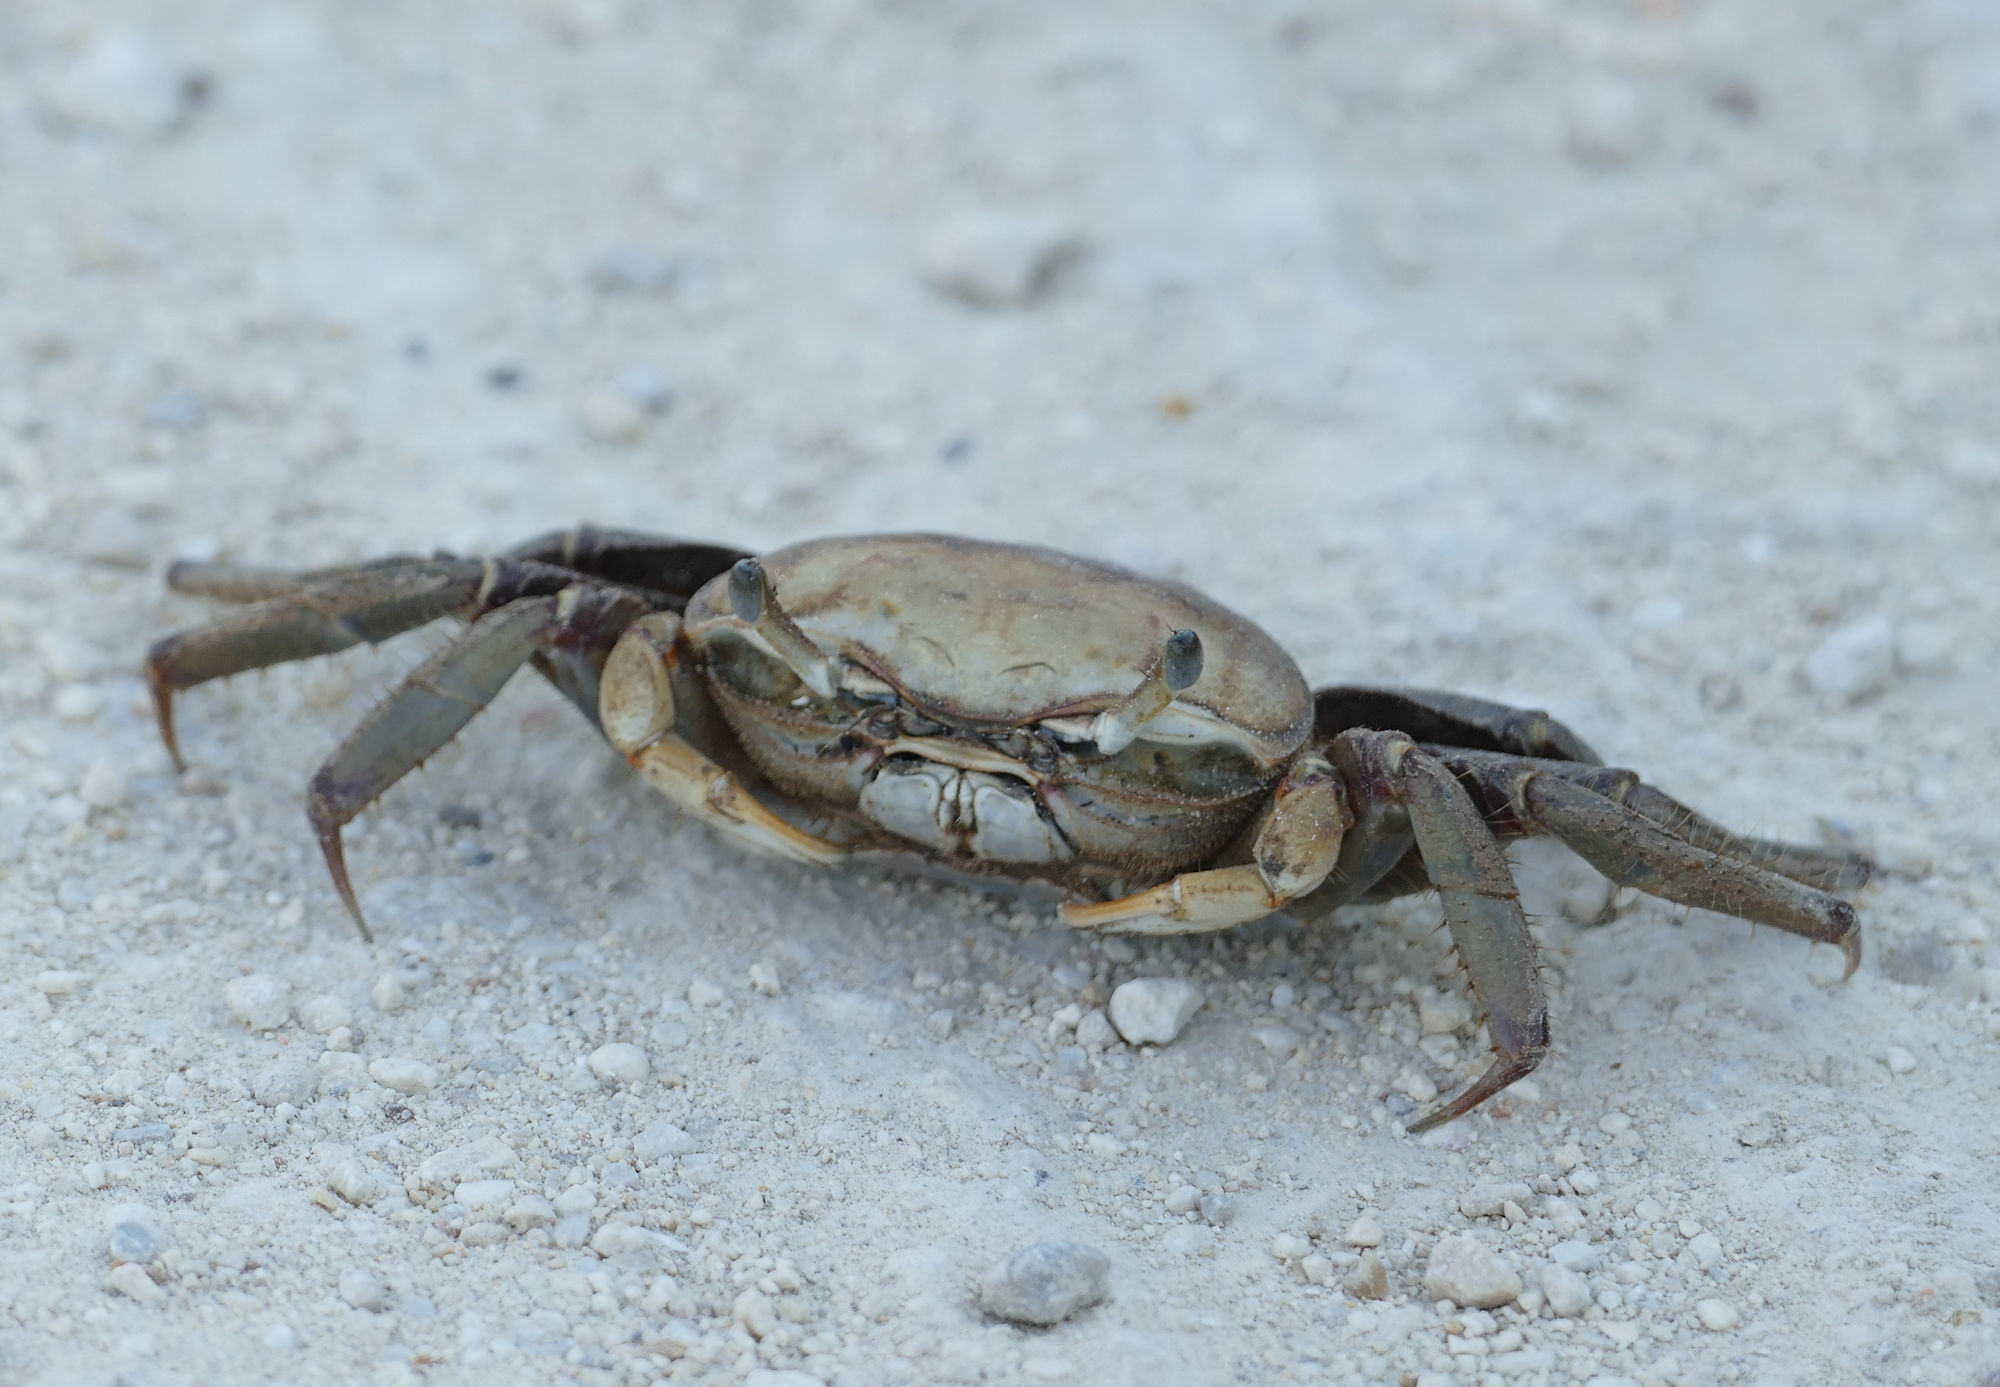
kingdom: Animalia
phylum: Arthropoda
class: Malacostraca
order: Decapoda
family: Ocypodidae
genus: Minuca
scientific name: Minuca minax
